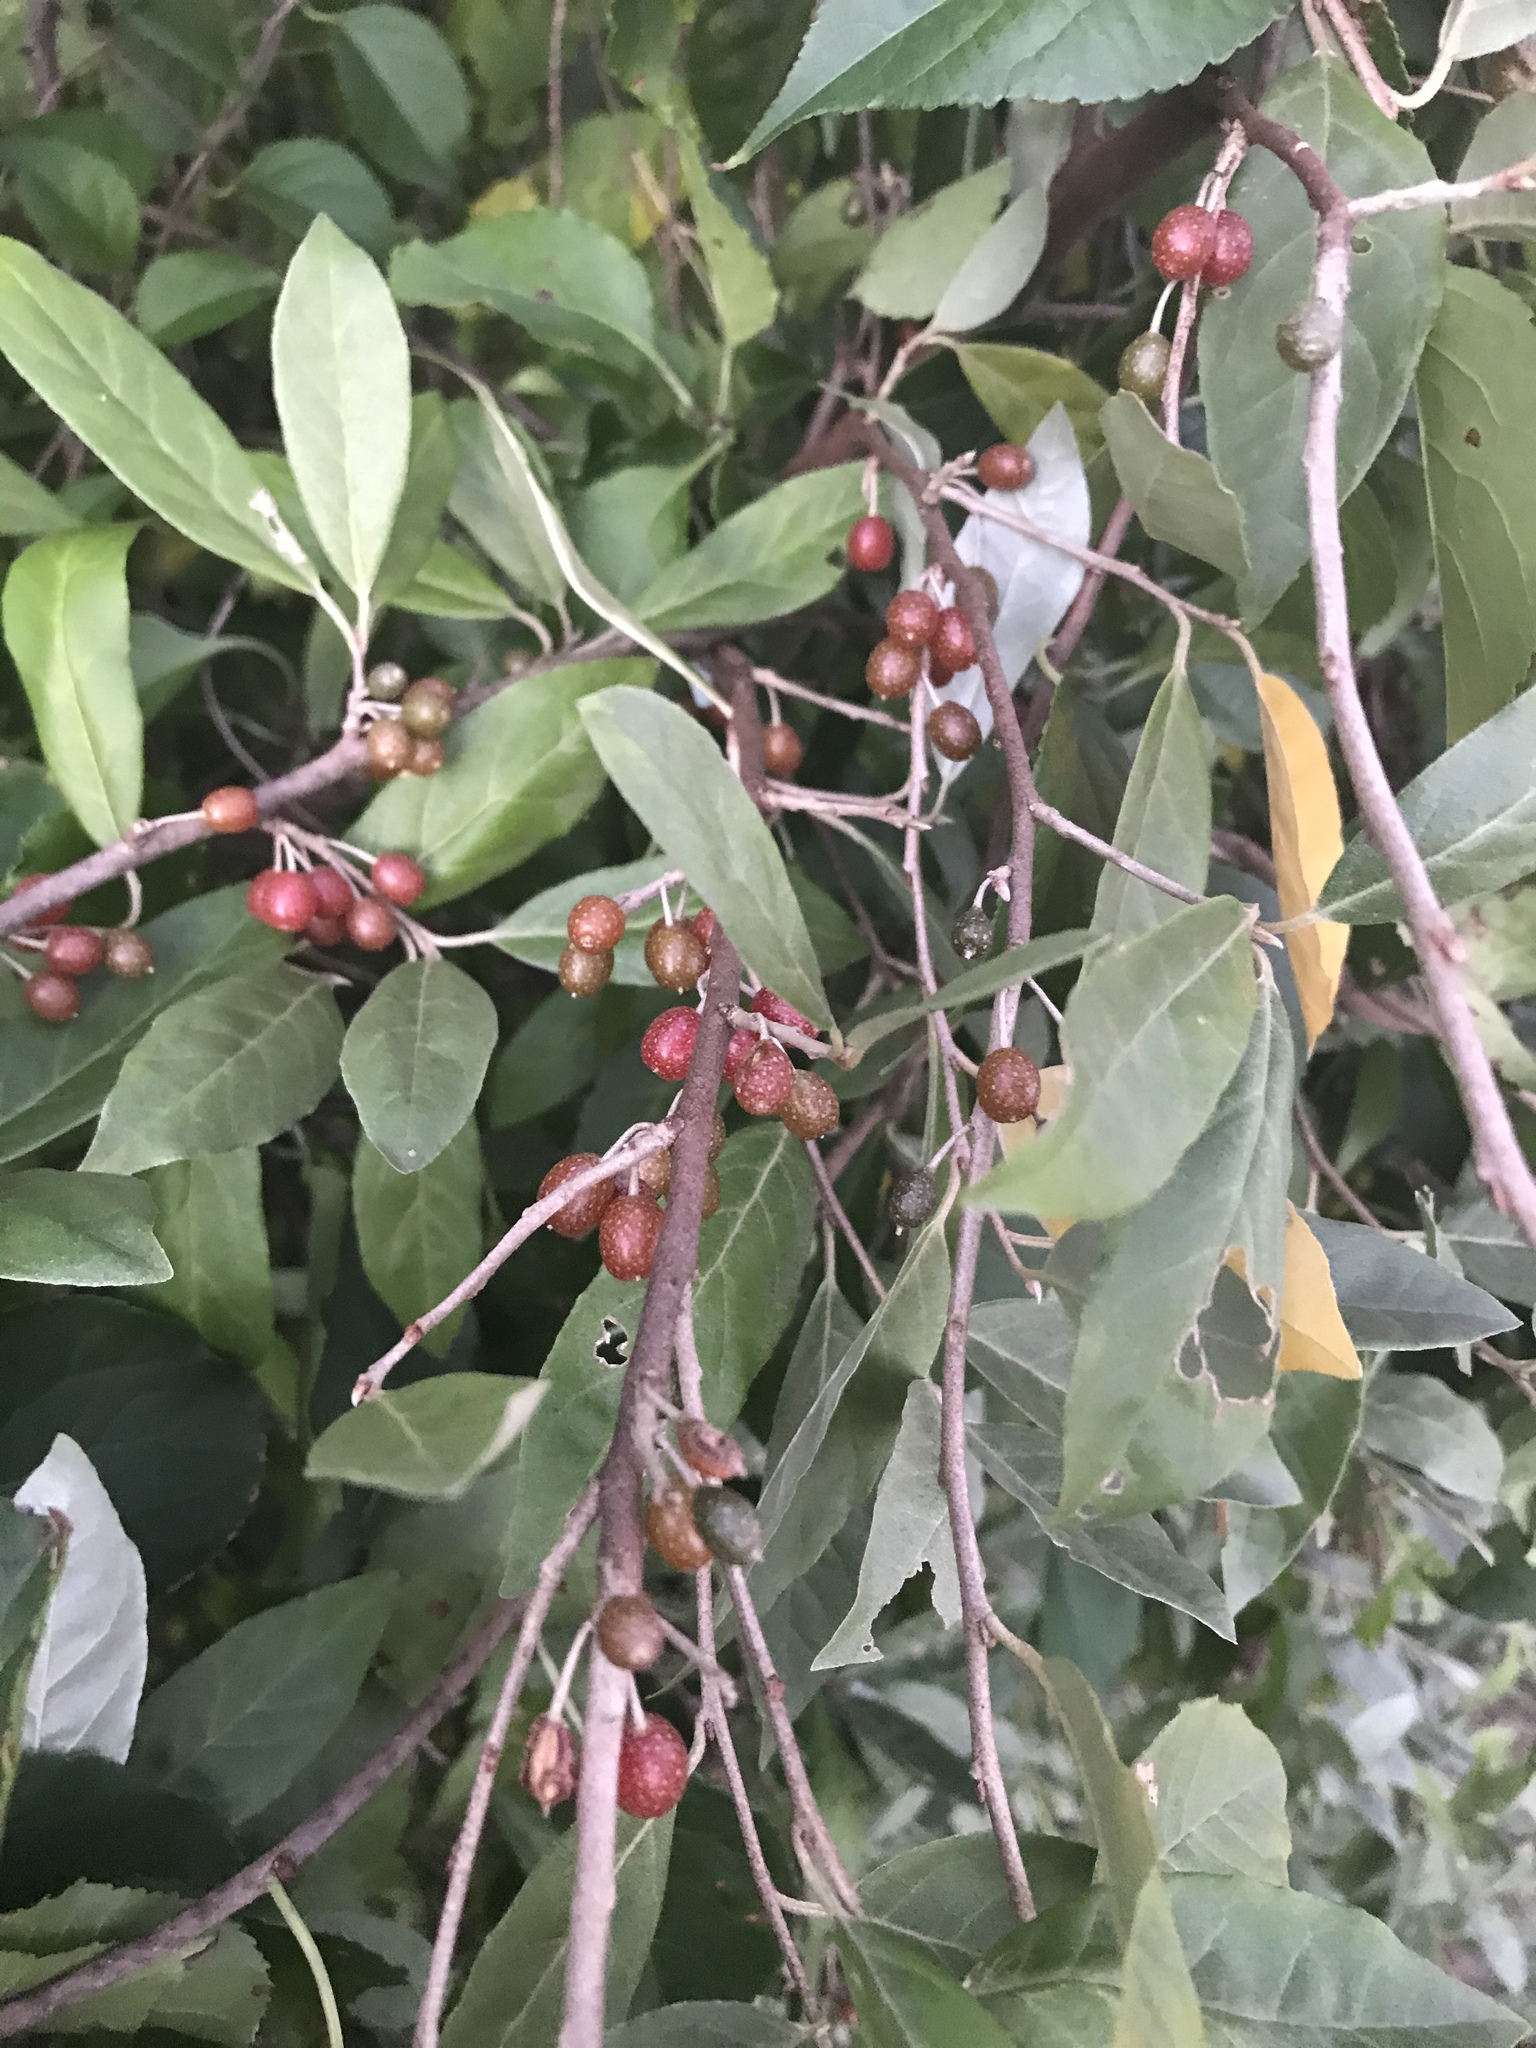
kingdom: Plantae
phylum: Tracheophyta
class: Magnoliopsida
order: Rosales
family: Elaeagnaceae
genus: Elaeagnus
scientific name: Elaeagnus umbellata
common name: Autumn olive
